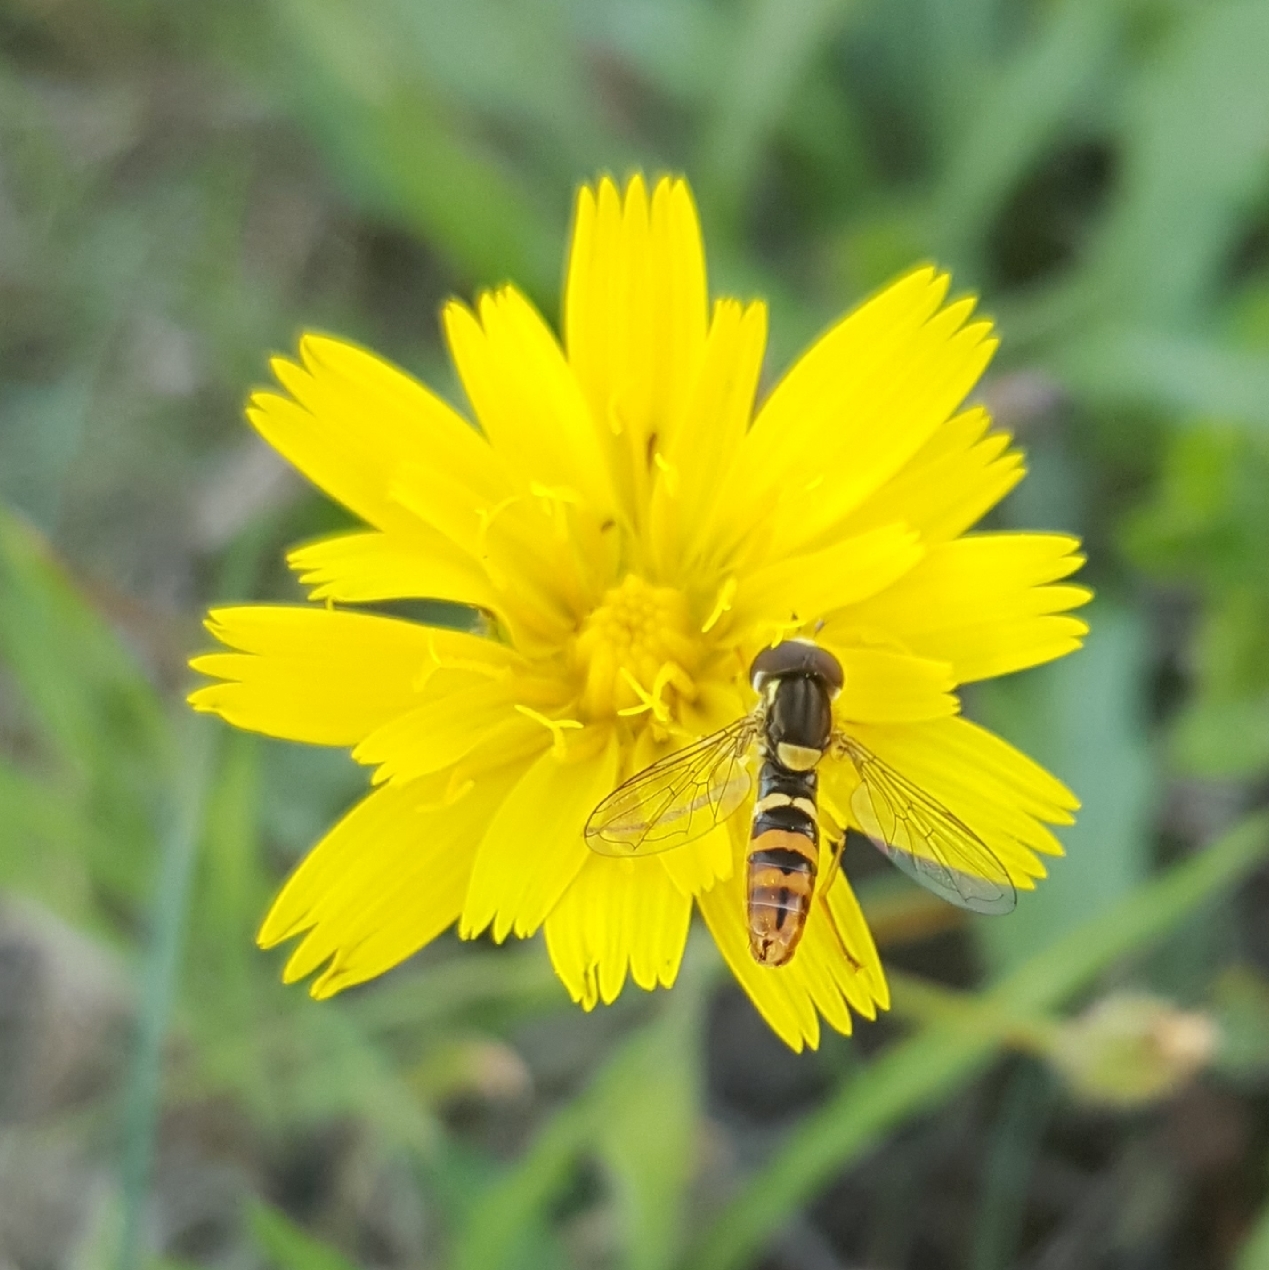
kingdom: Animalia
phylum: Arthropoda
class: Insecta
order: Diptera
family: Syrphidae
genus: Sphaerophoria
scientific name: Sphaerophoria sulphuripes
